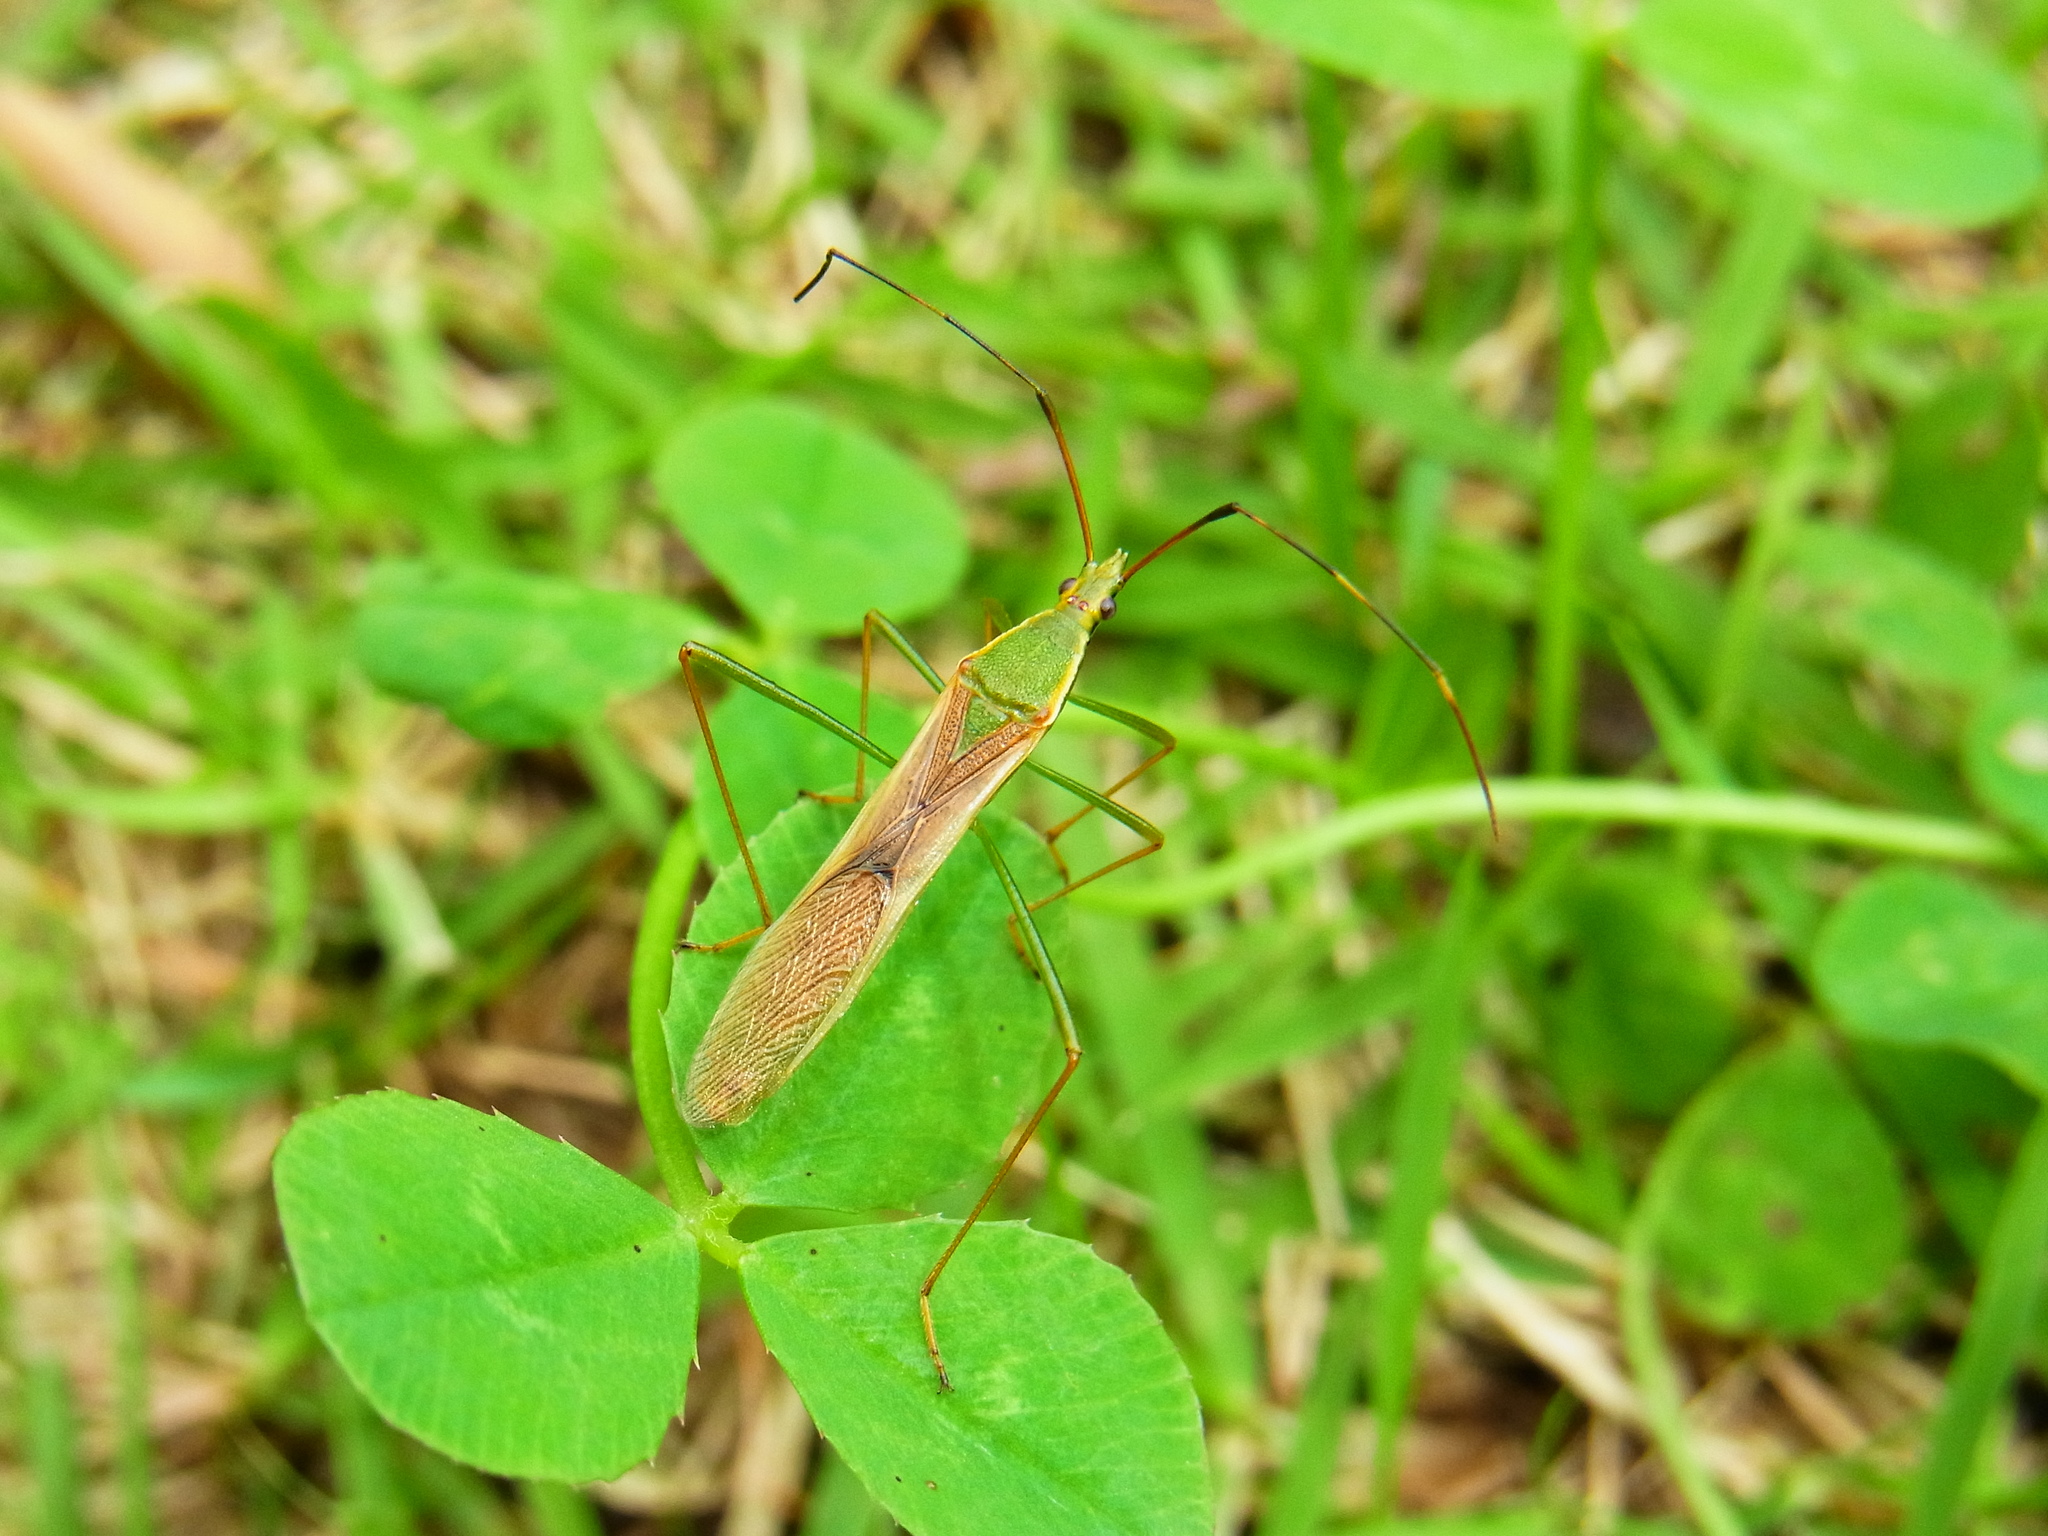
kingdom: Animalia
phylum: Arthropoda
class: Insecta
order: Hemiptera
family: Alydidae
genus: Leptocorisa
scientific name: Leptocorisa chinensis
